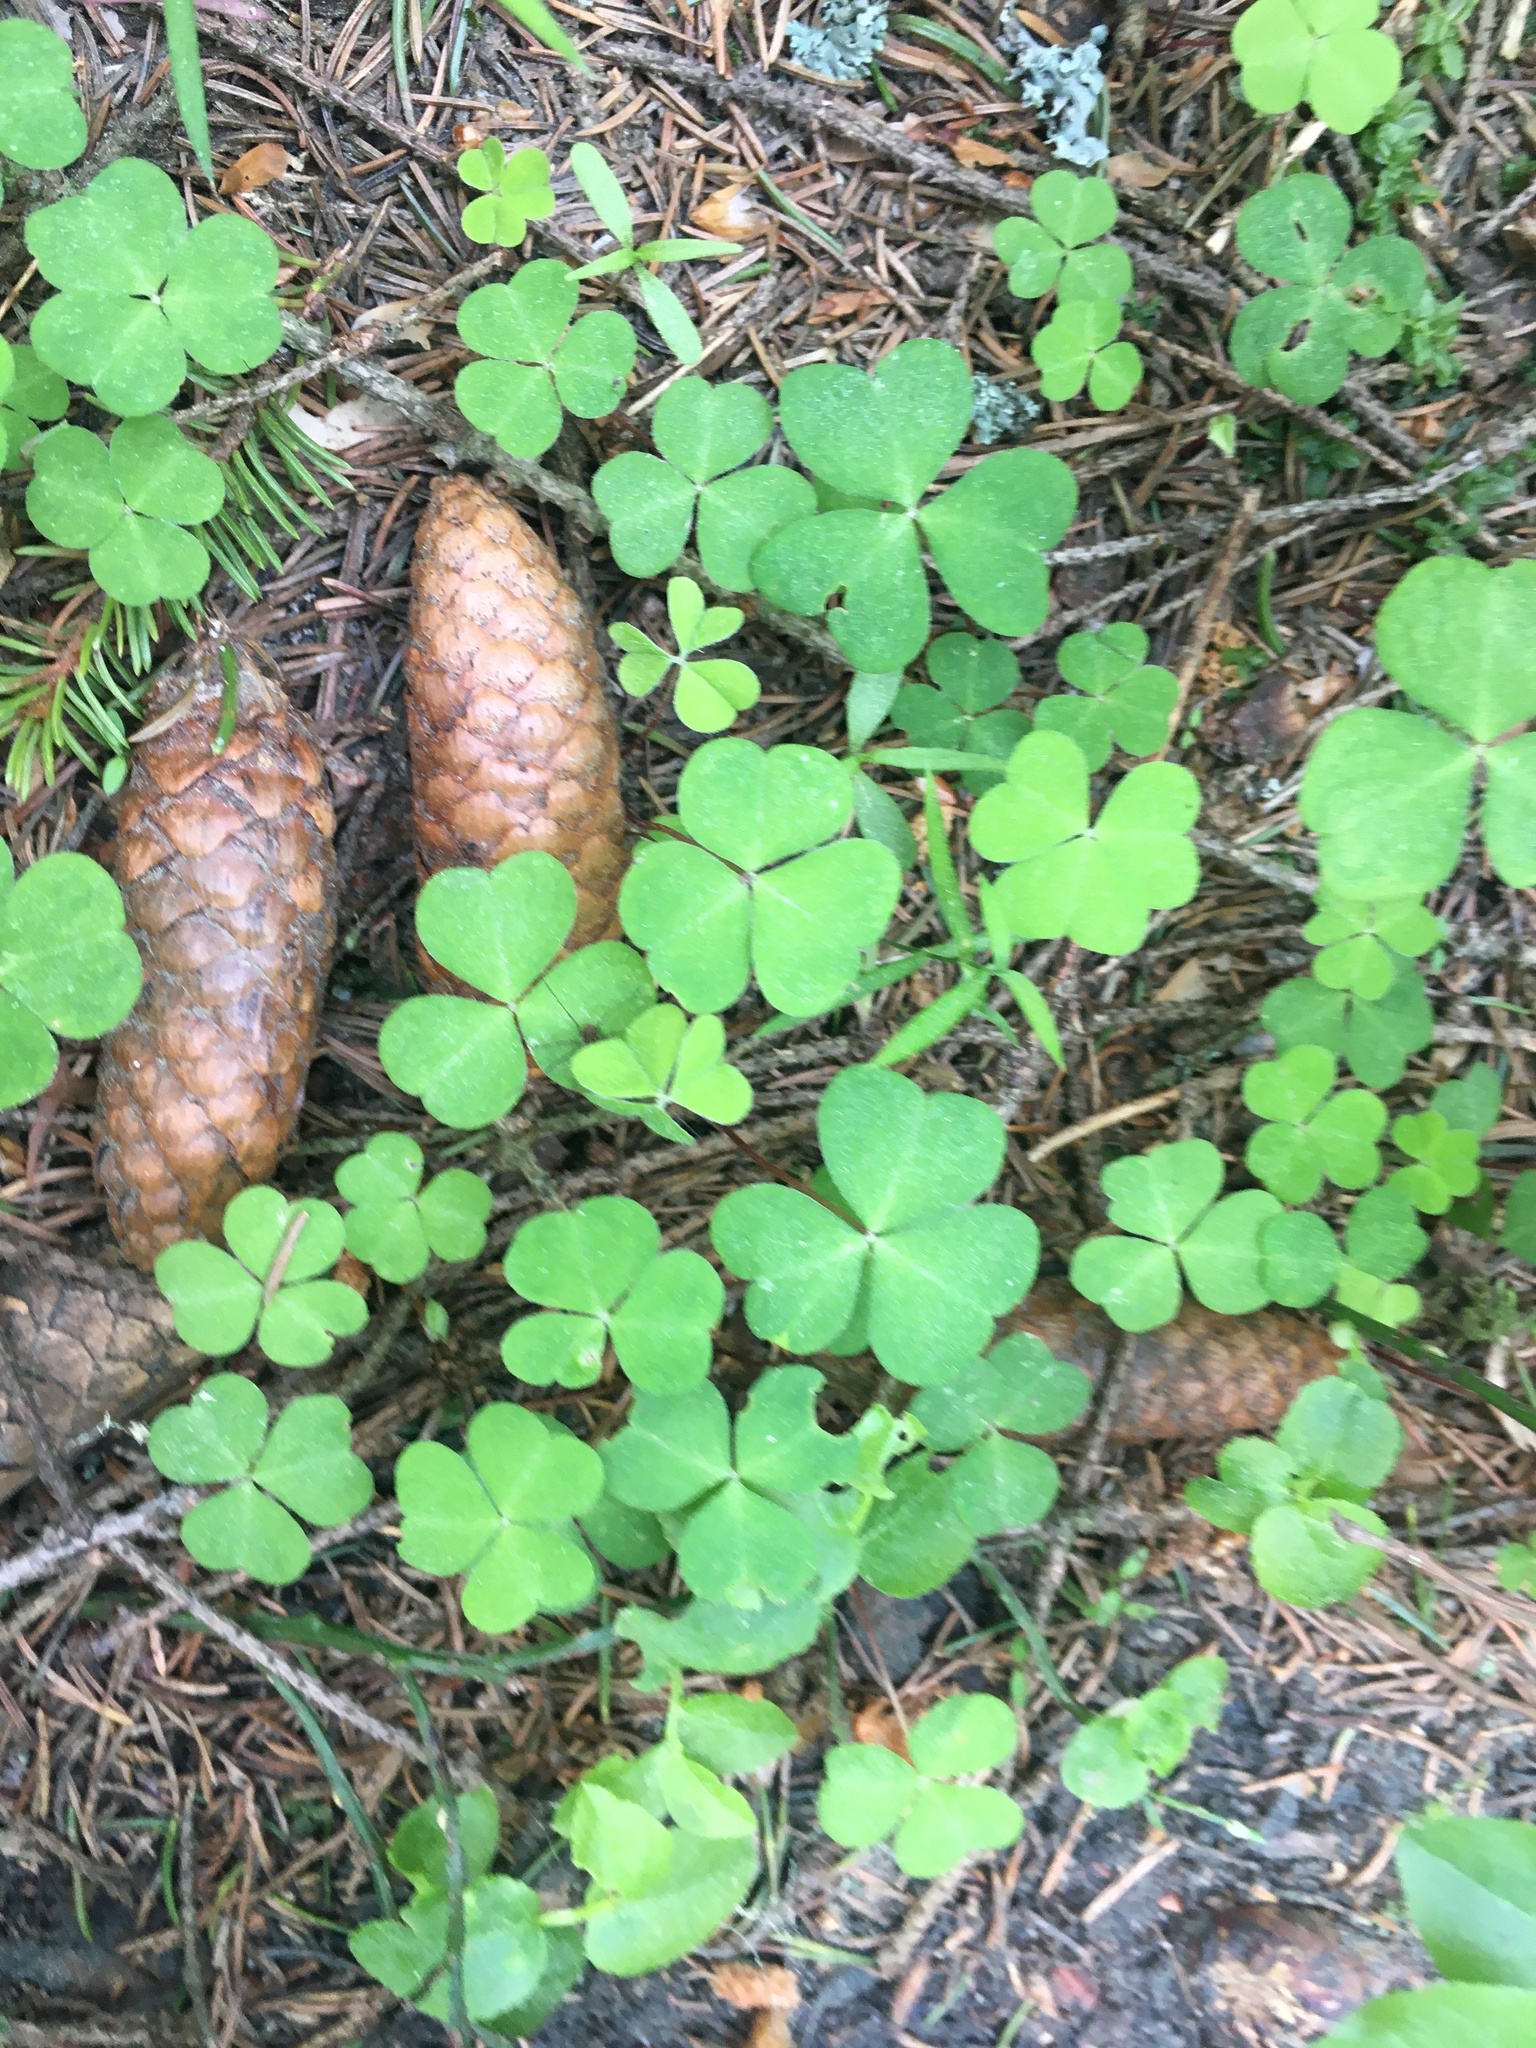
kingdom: Plantae
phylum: Tracheophyta
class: Magnoliopsida
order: Oxalidales
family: Oxalidaceae
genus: Oxalis
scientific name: Oxalis acetosella
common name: Wood-sorrel
